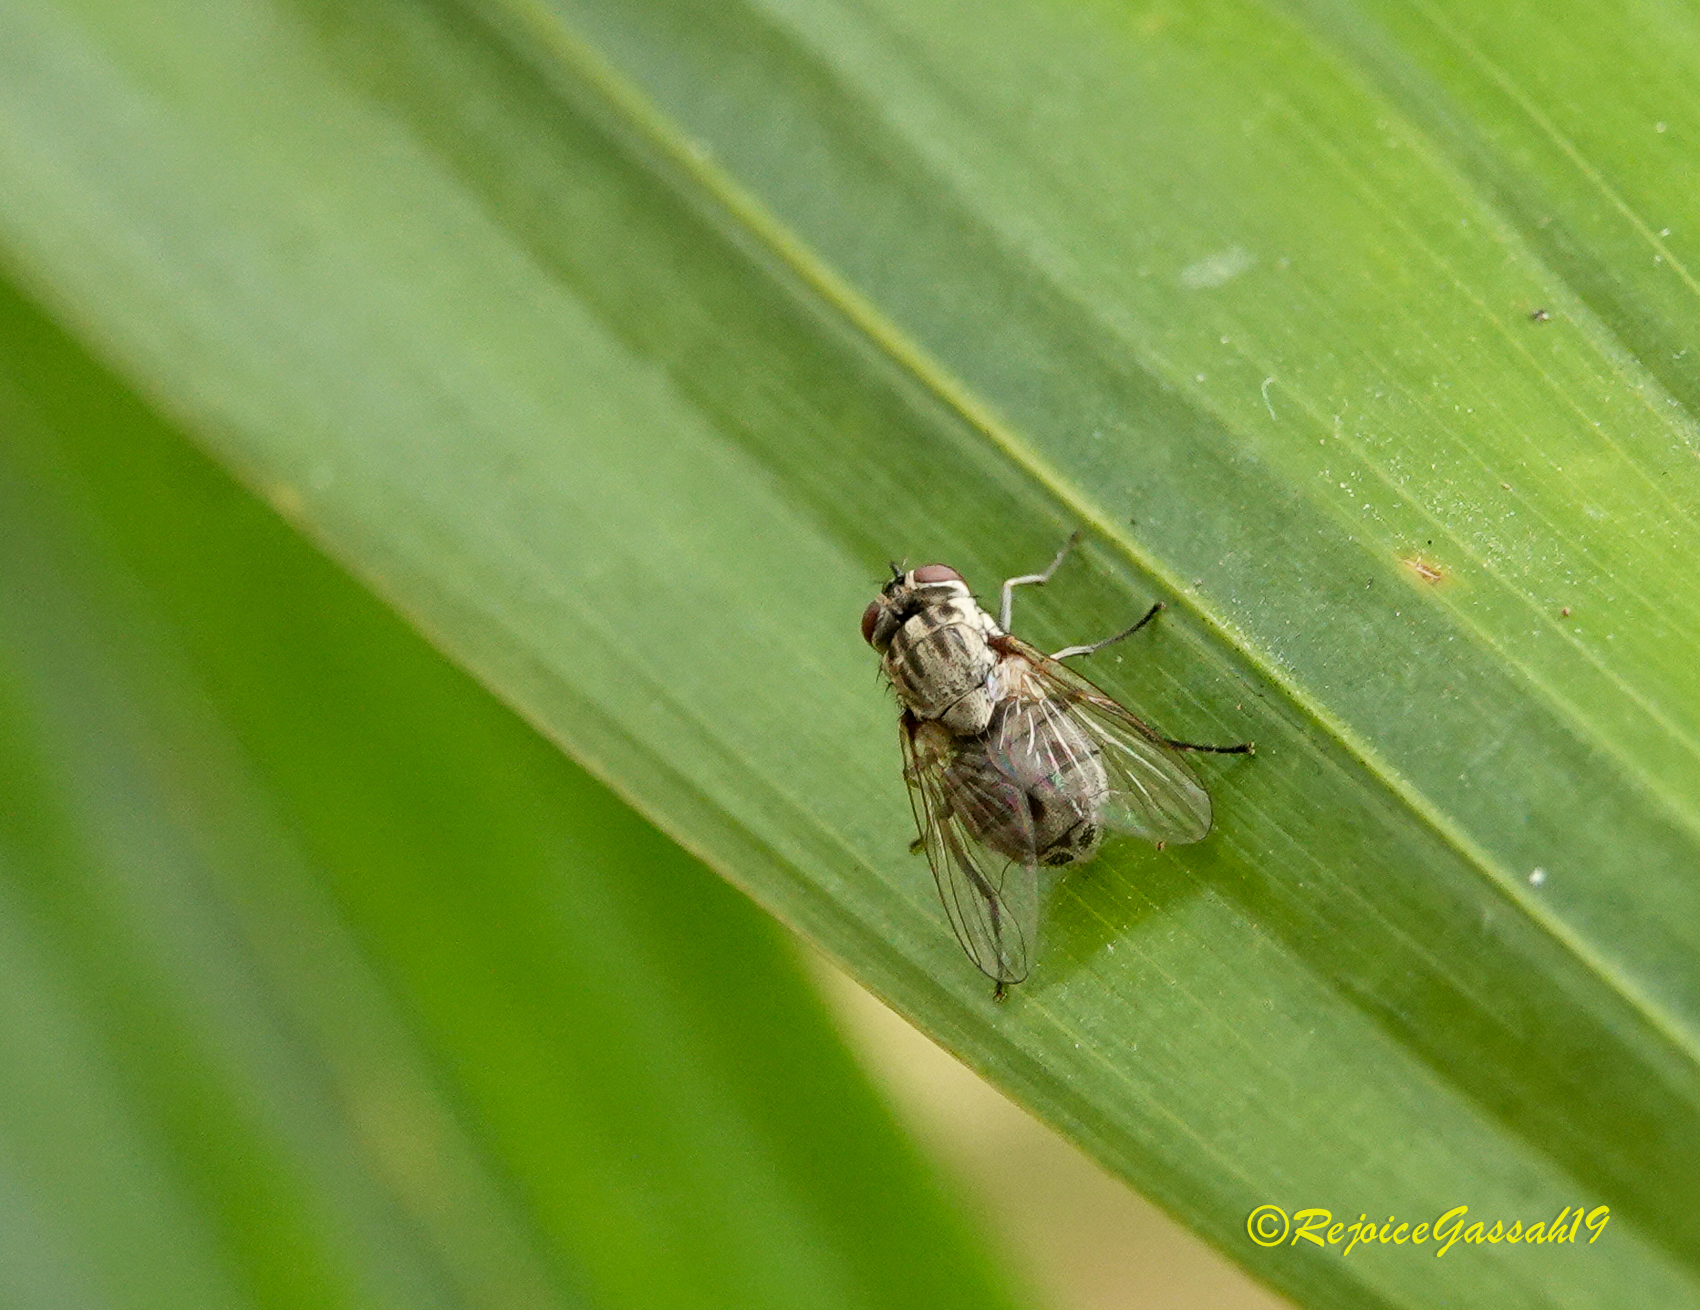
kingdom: Animalia
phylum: Arthropoda
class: Insecta
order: Diptera
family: Muscidae
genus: Stomoxys
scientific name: Stomoxys indicus
